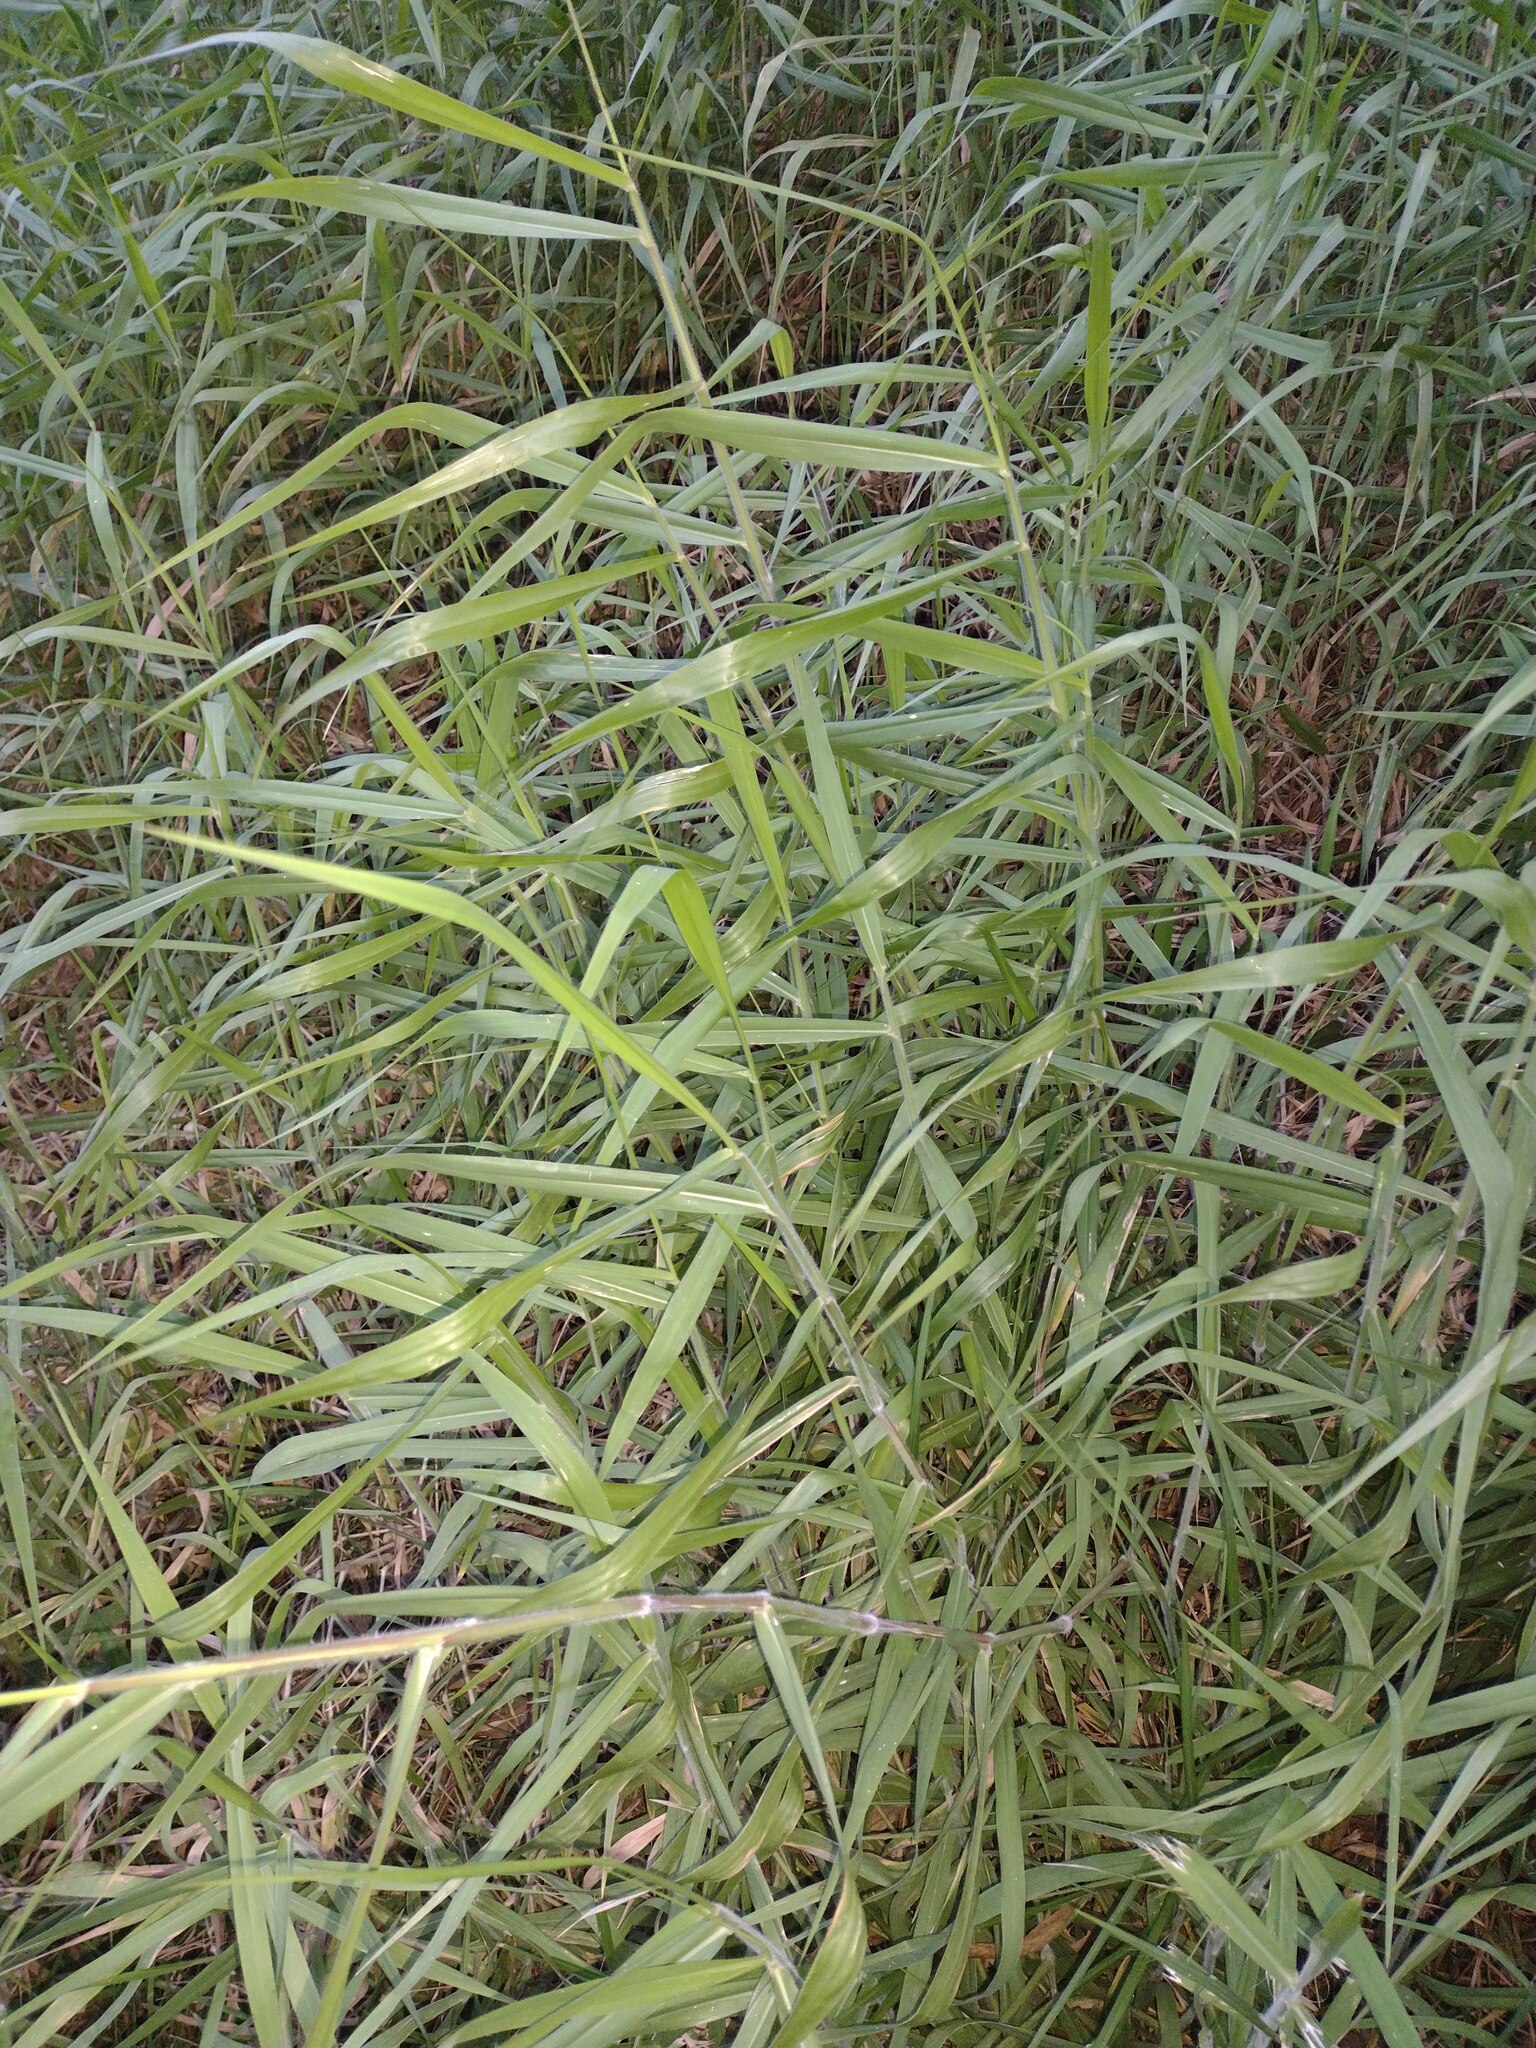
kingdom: Plantae
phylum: Tracheophyta
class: Liliopsida
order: Poales
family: Poaceae
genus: Urochloa
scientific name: Urochloa mutica
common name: Para grass
